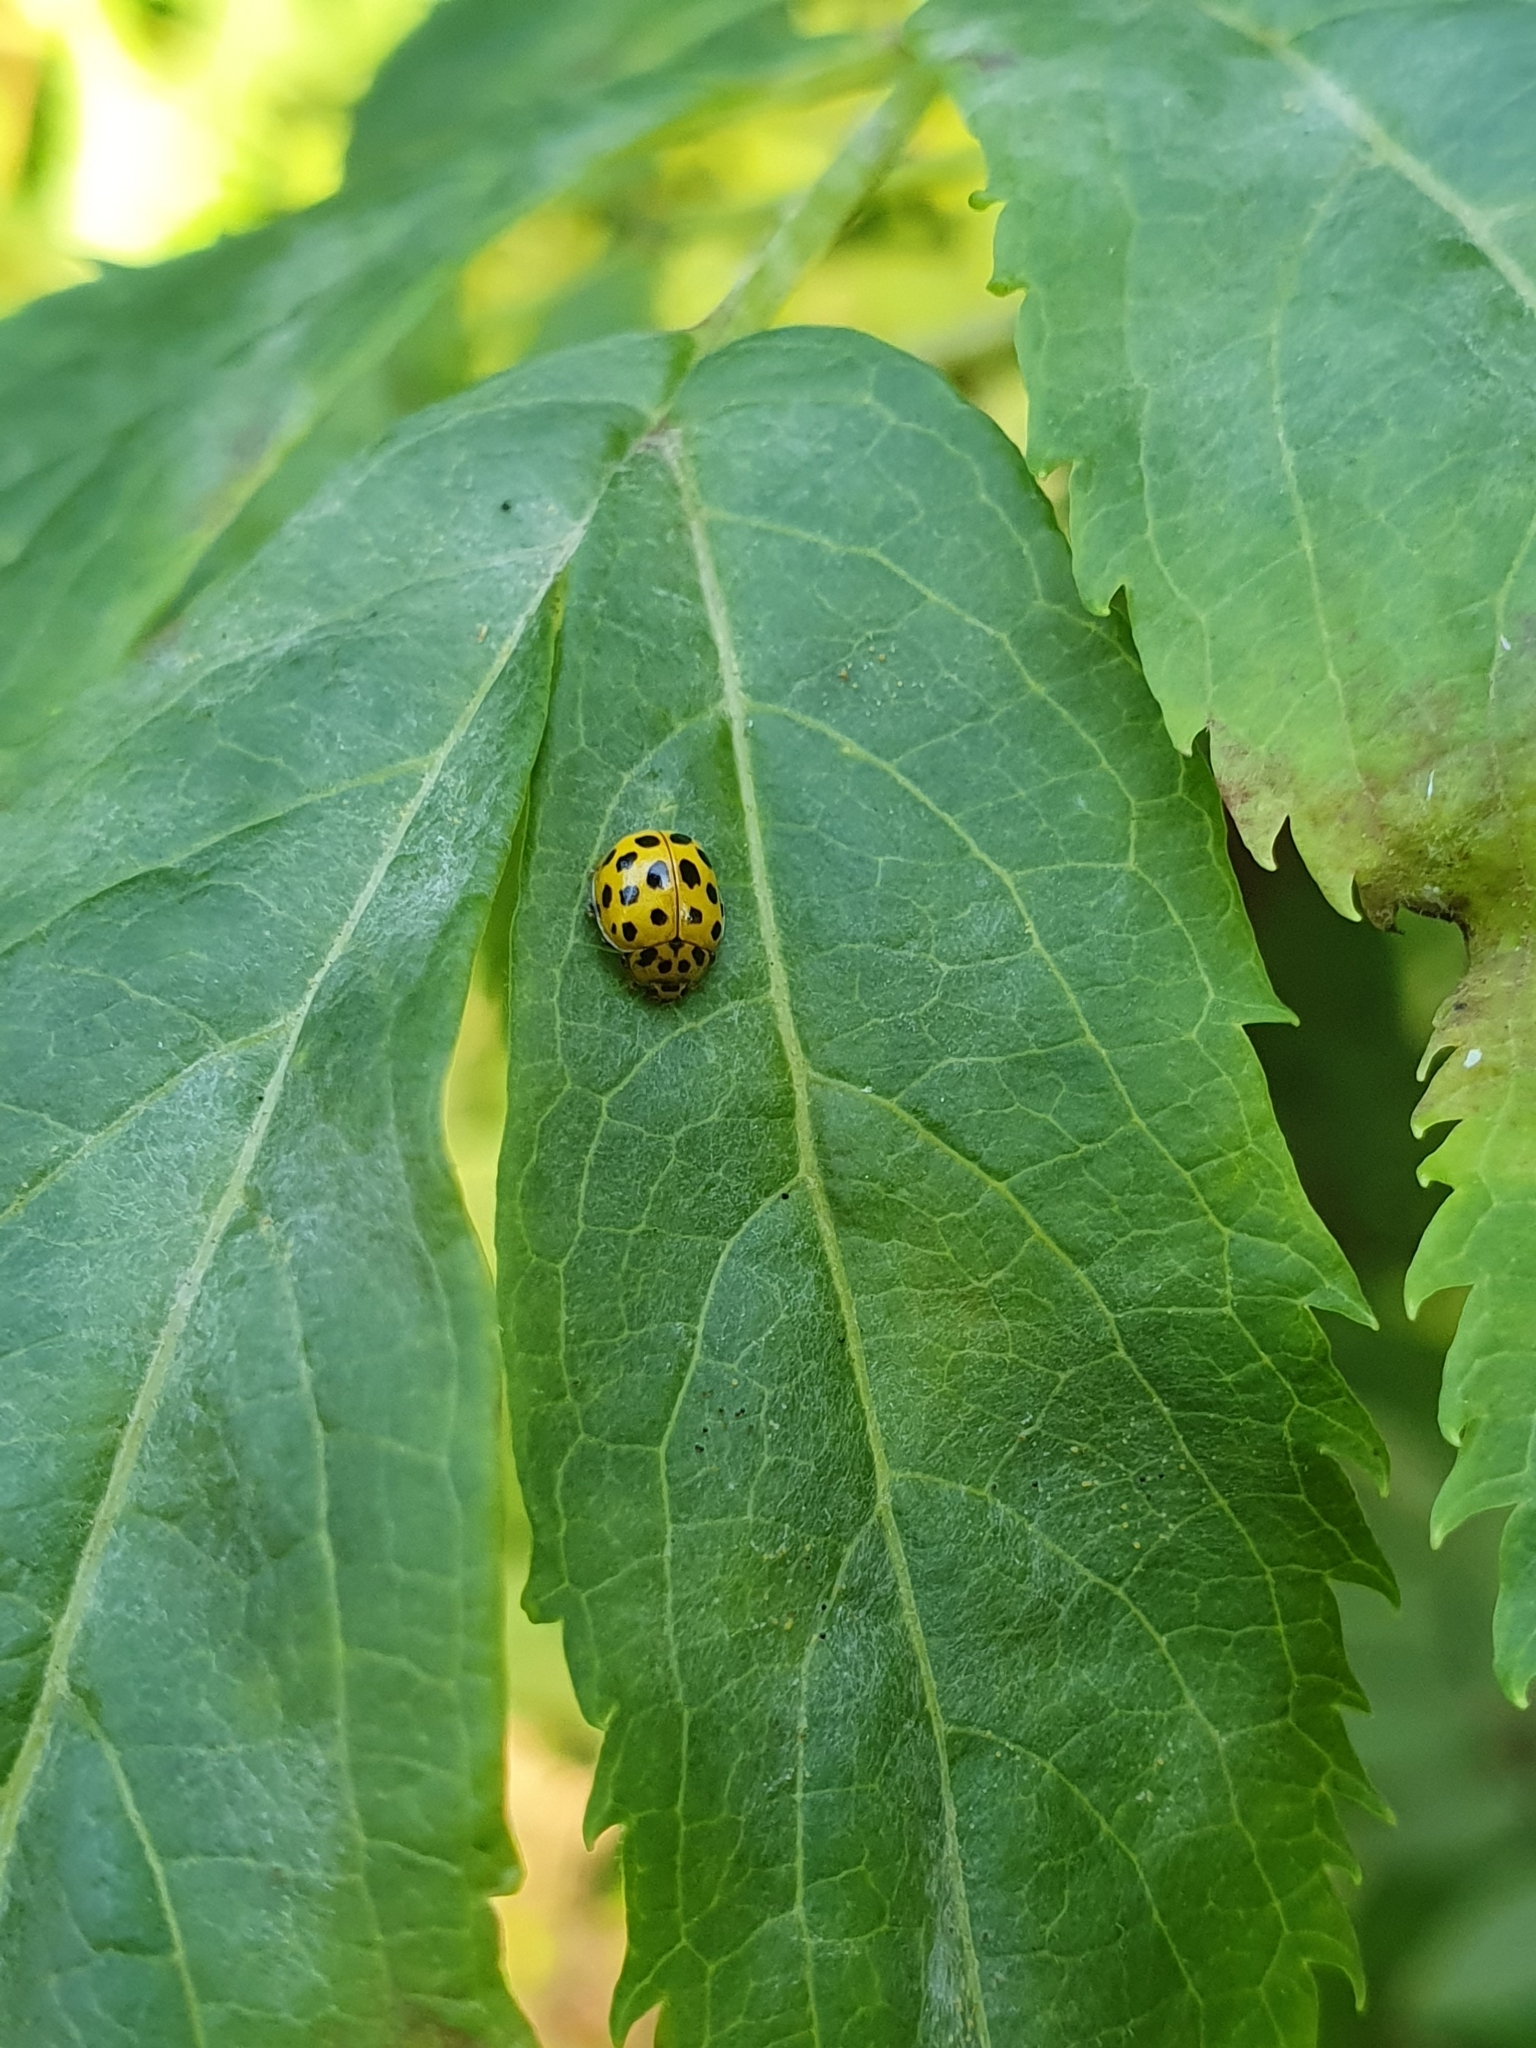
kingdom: Animalia
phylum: Arthropoda
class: Insecta
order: Coleoptera
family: Coccinellidae
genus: Psyllobora
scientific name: Psyllobora vigintiduopunctata
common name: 22-spot ladybird
